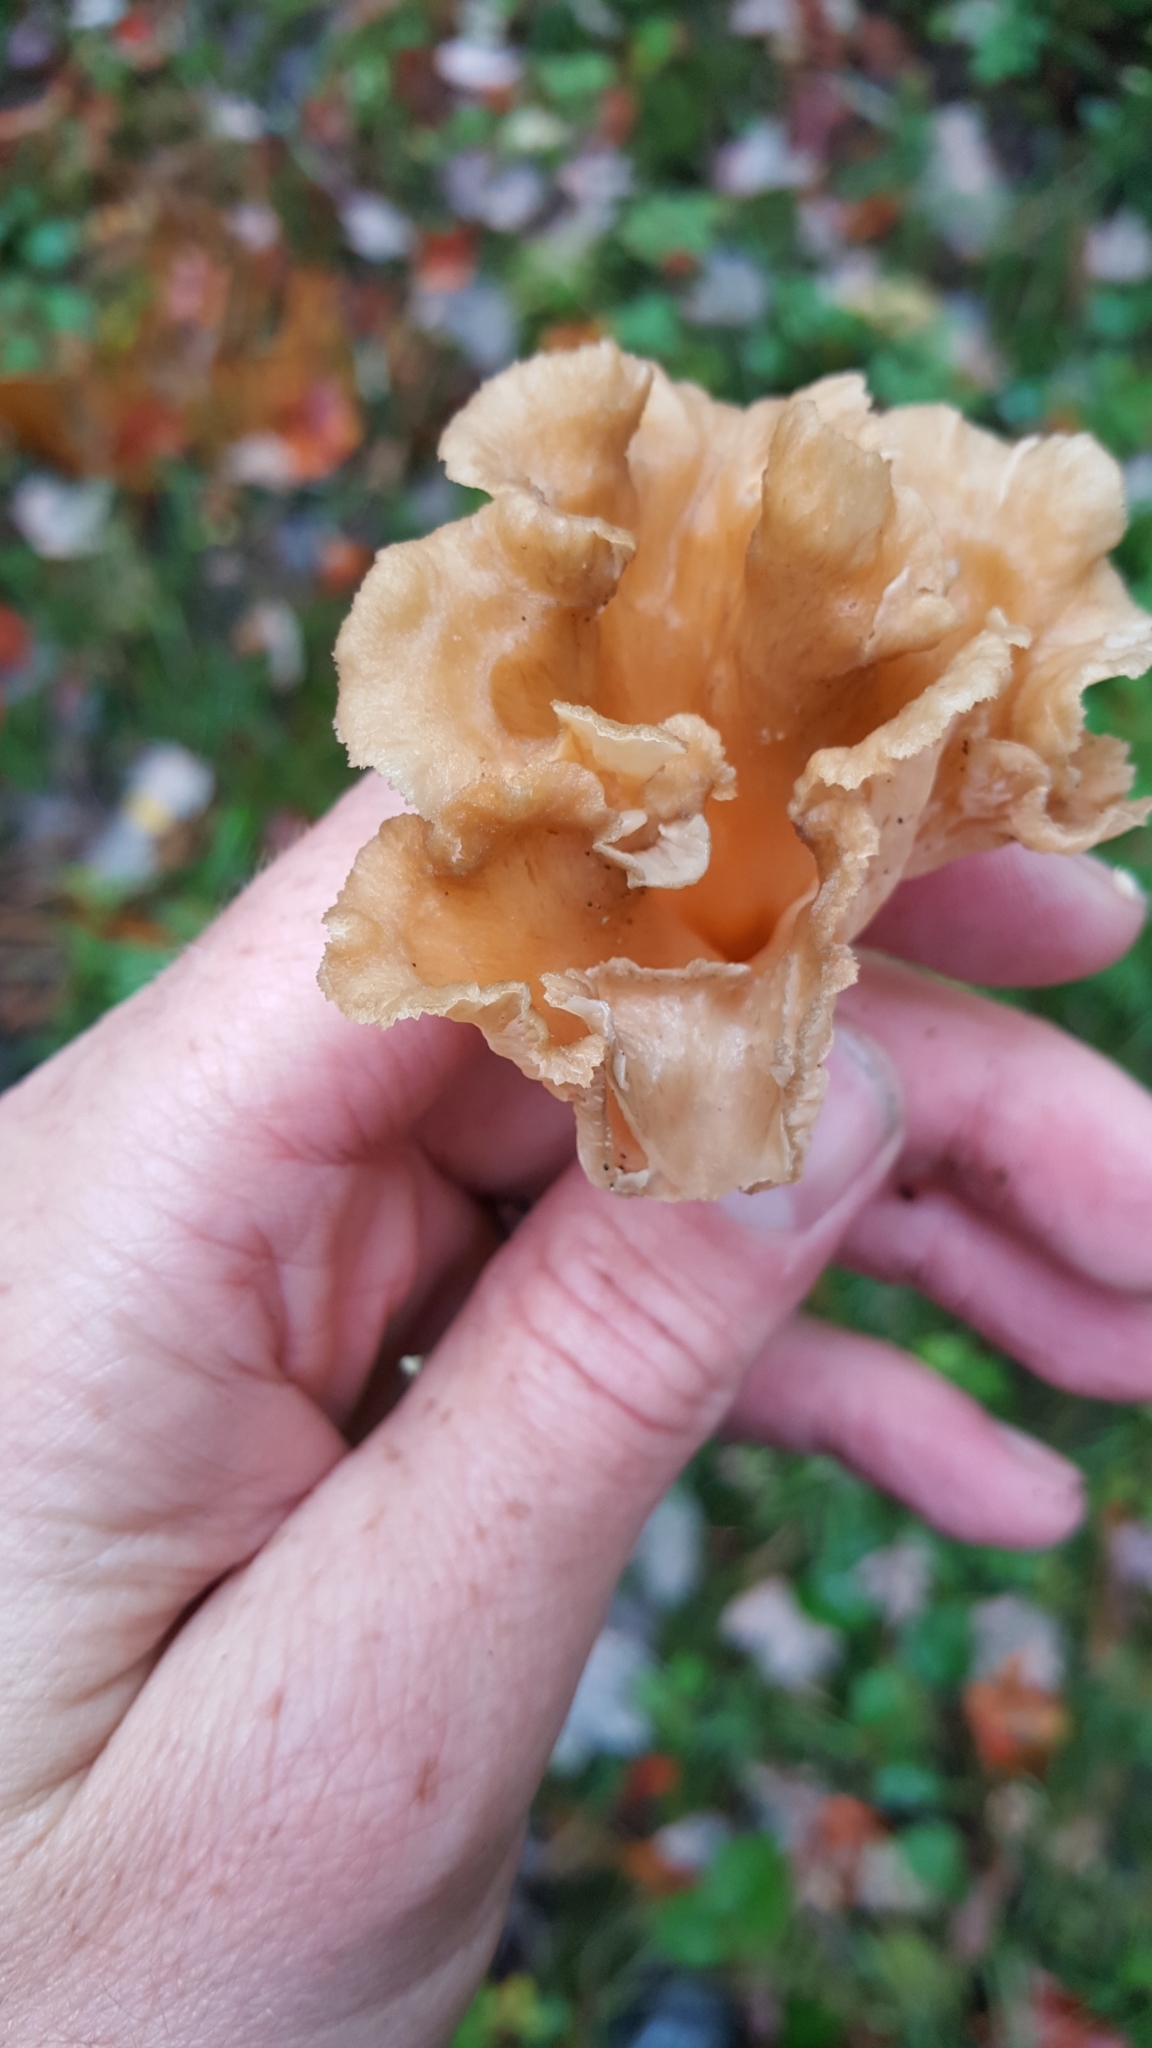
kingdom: Fungi
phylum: Basidiomycota
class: Agaricomycetes
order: Cantharellales
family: Hydnaceae
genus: Craterellus
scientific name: Craterellus lutescens
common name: Golden chanterelle
